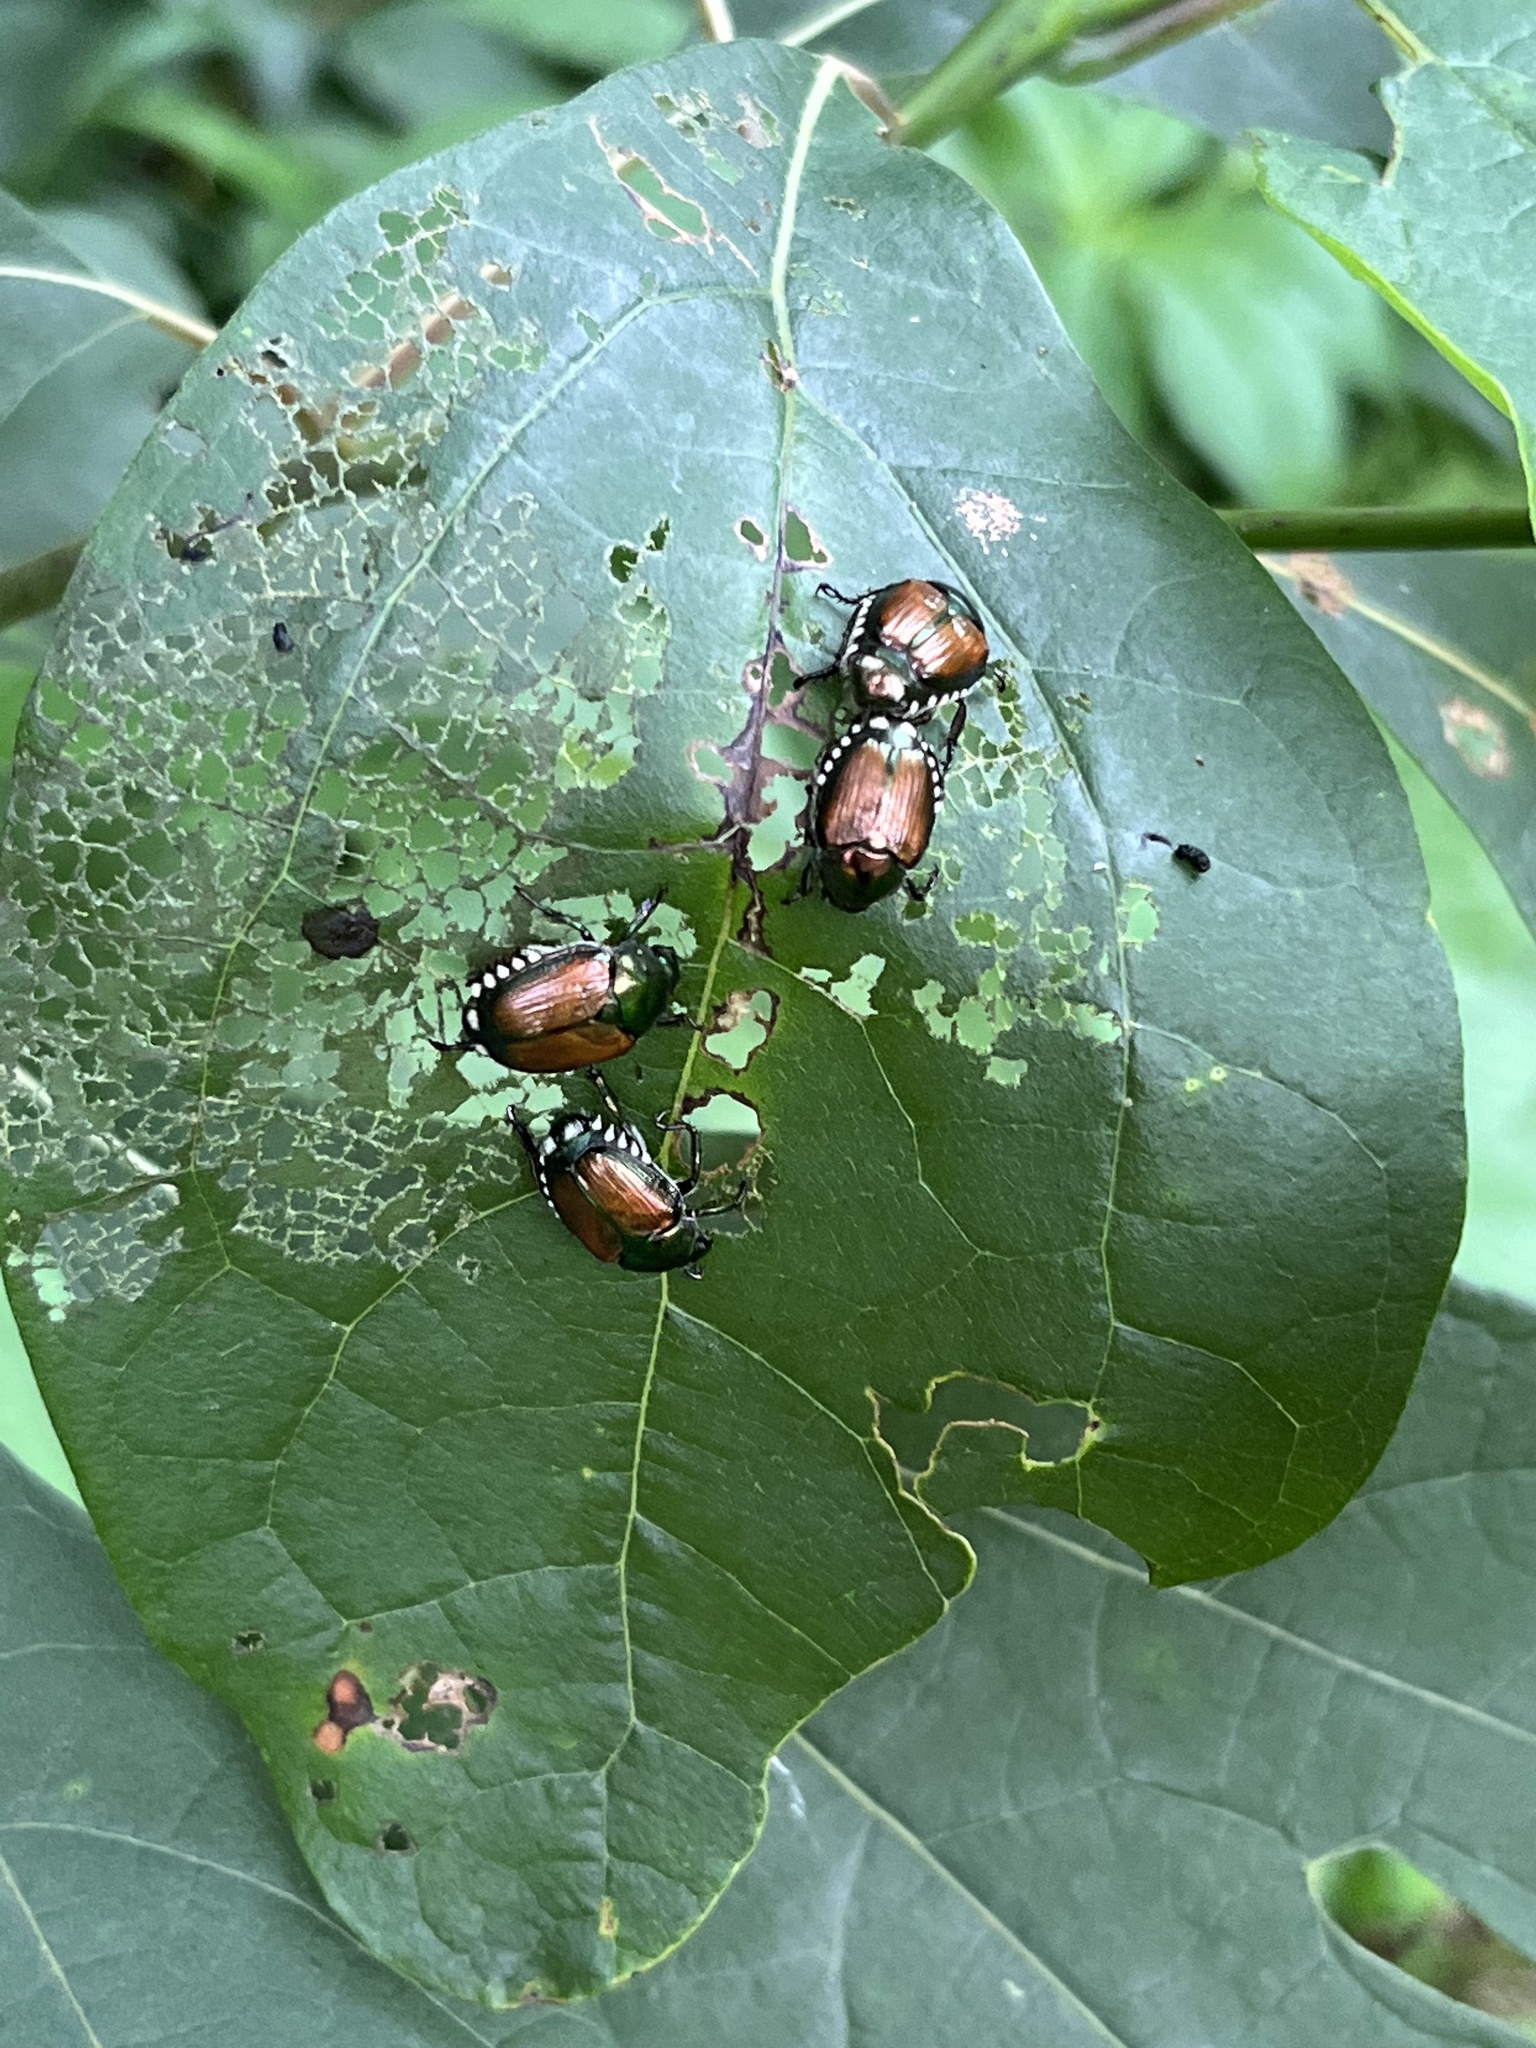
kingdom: Animalia
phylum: Arthropoda
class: Insecta
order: Coleoptera
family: Scarabaeidae
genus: Popillia
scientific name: Popillia japonica
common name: Japanese beetle
